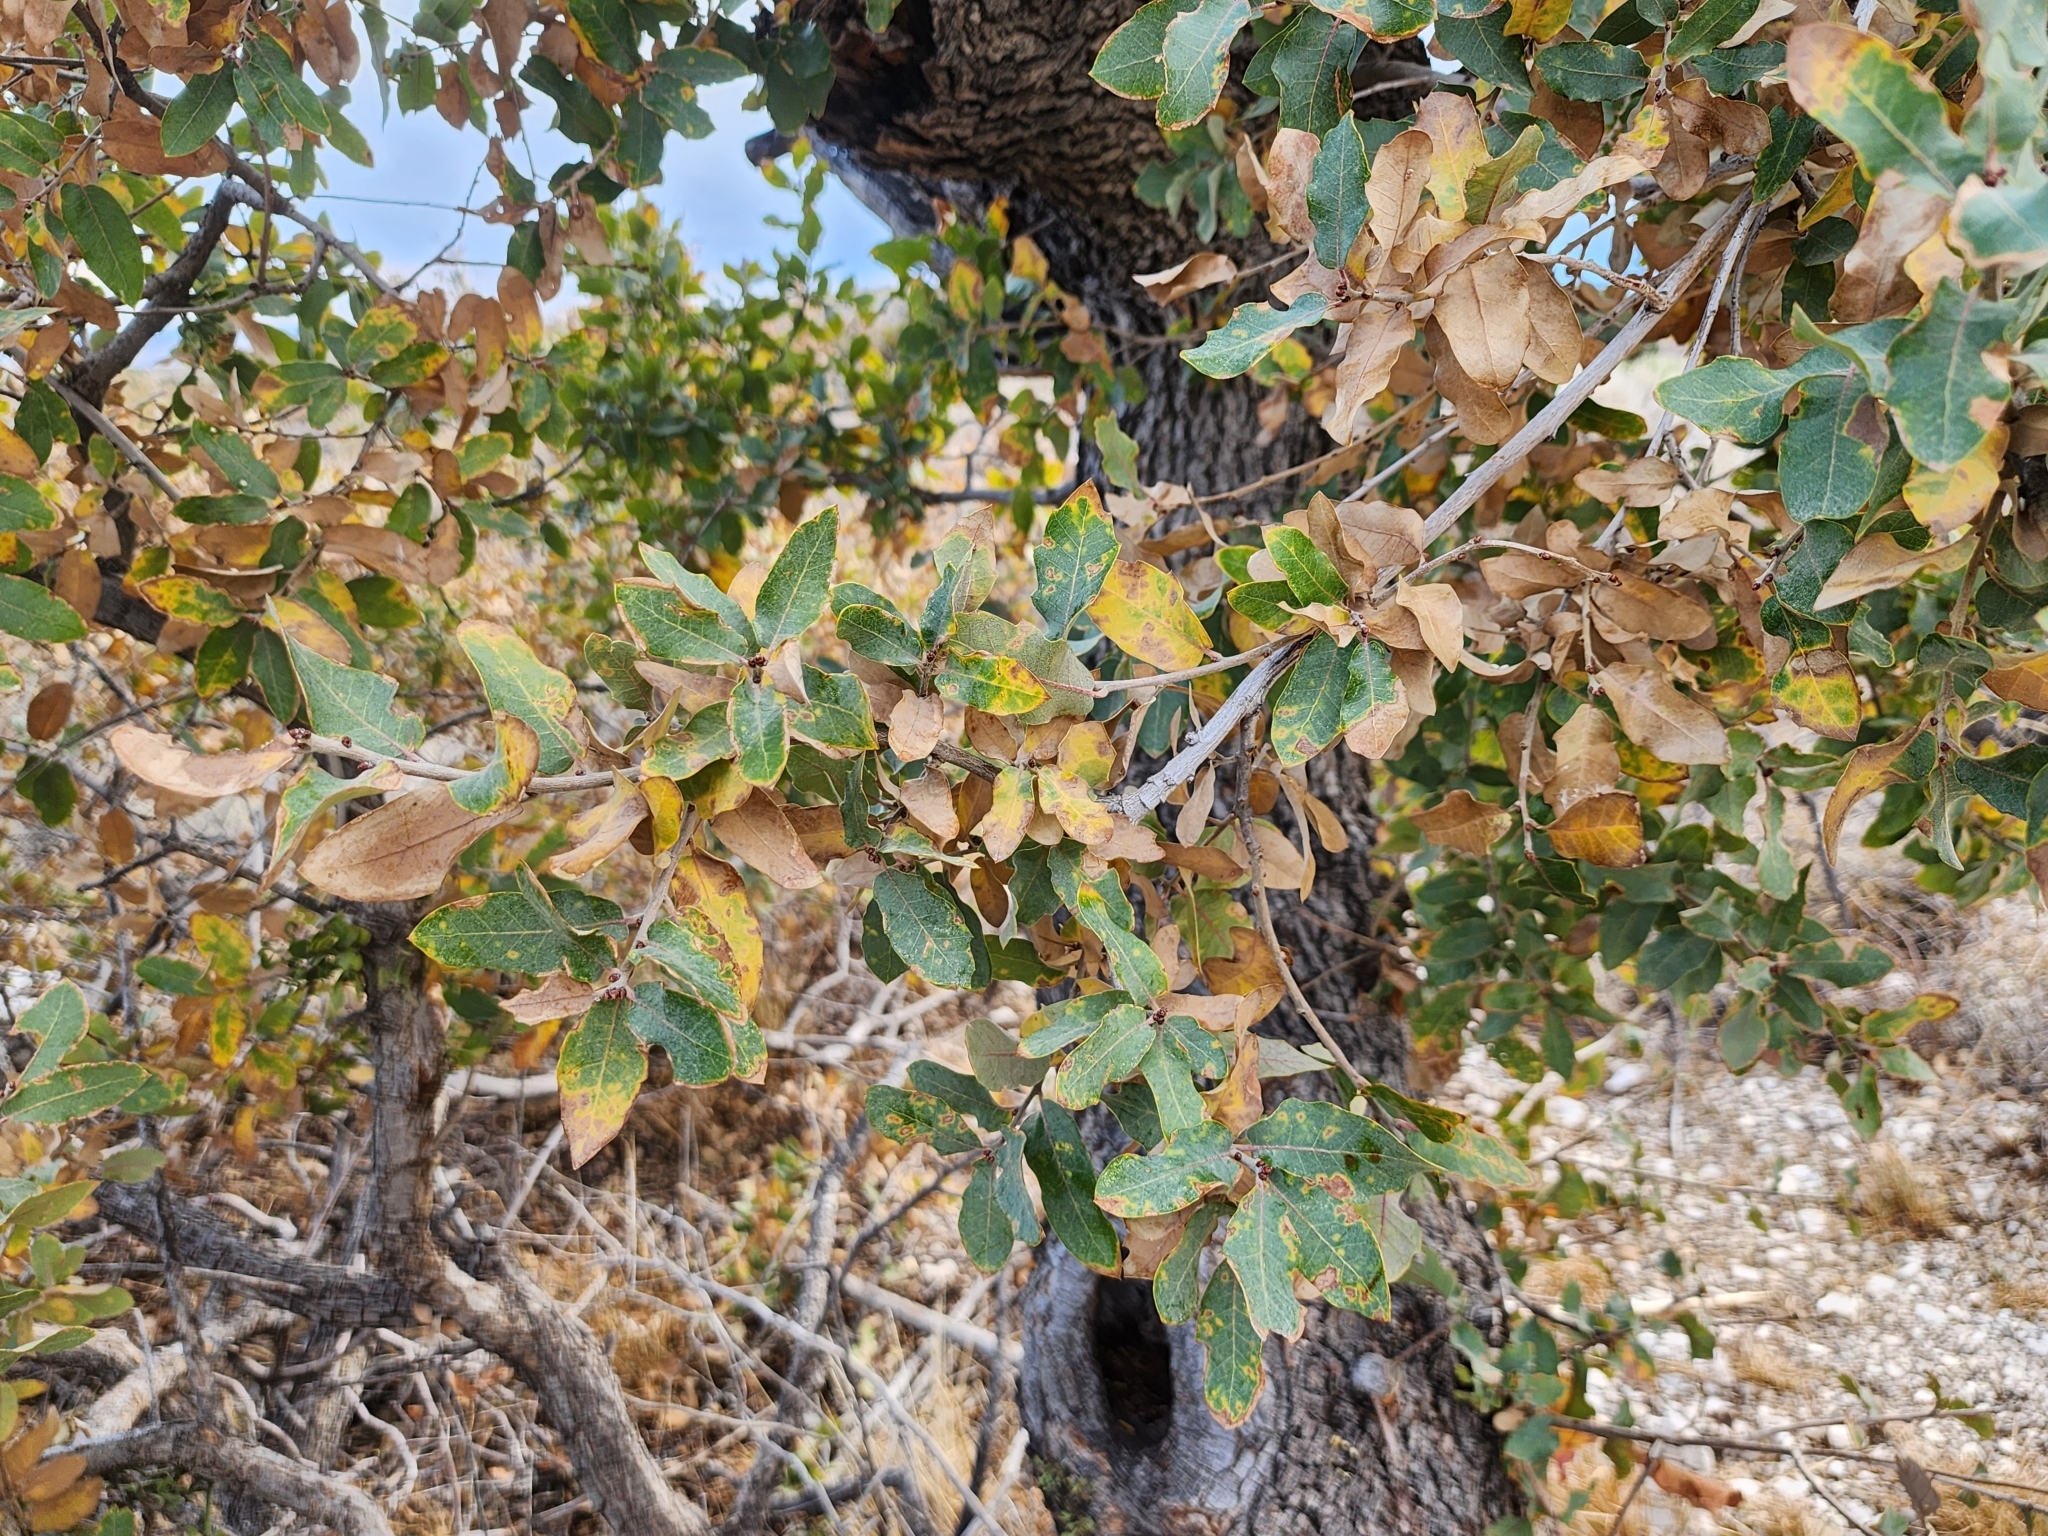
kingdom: Plantae
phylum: Tracheophyta
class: Magnoliopsida
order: Fagales
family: Fagaceae
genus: Quercus
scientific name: Quercus grisea
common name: Gray oak
